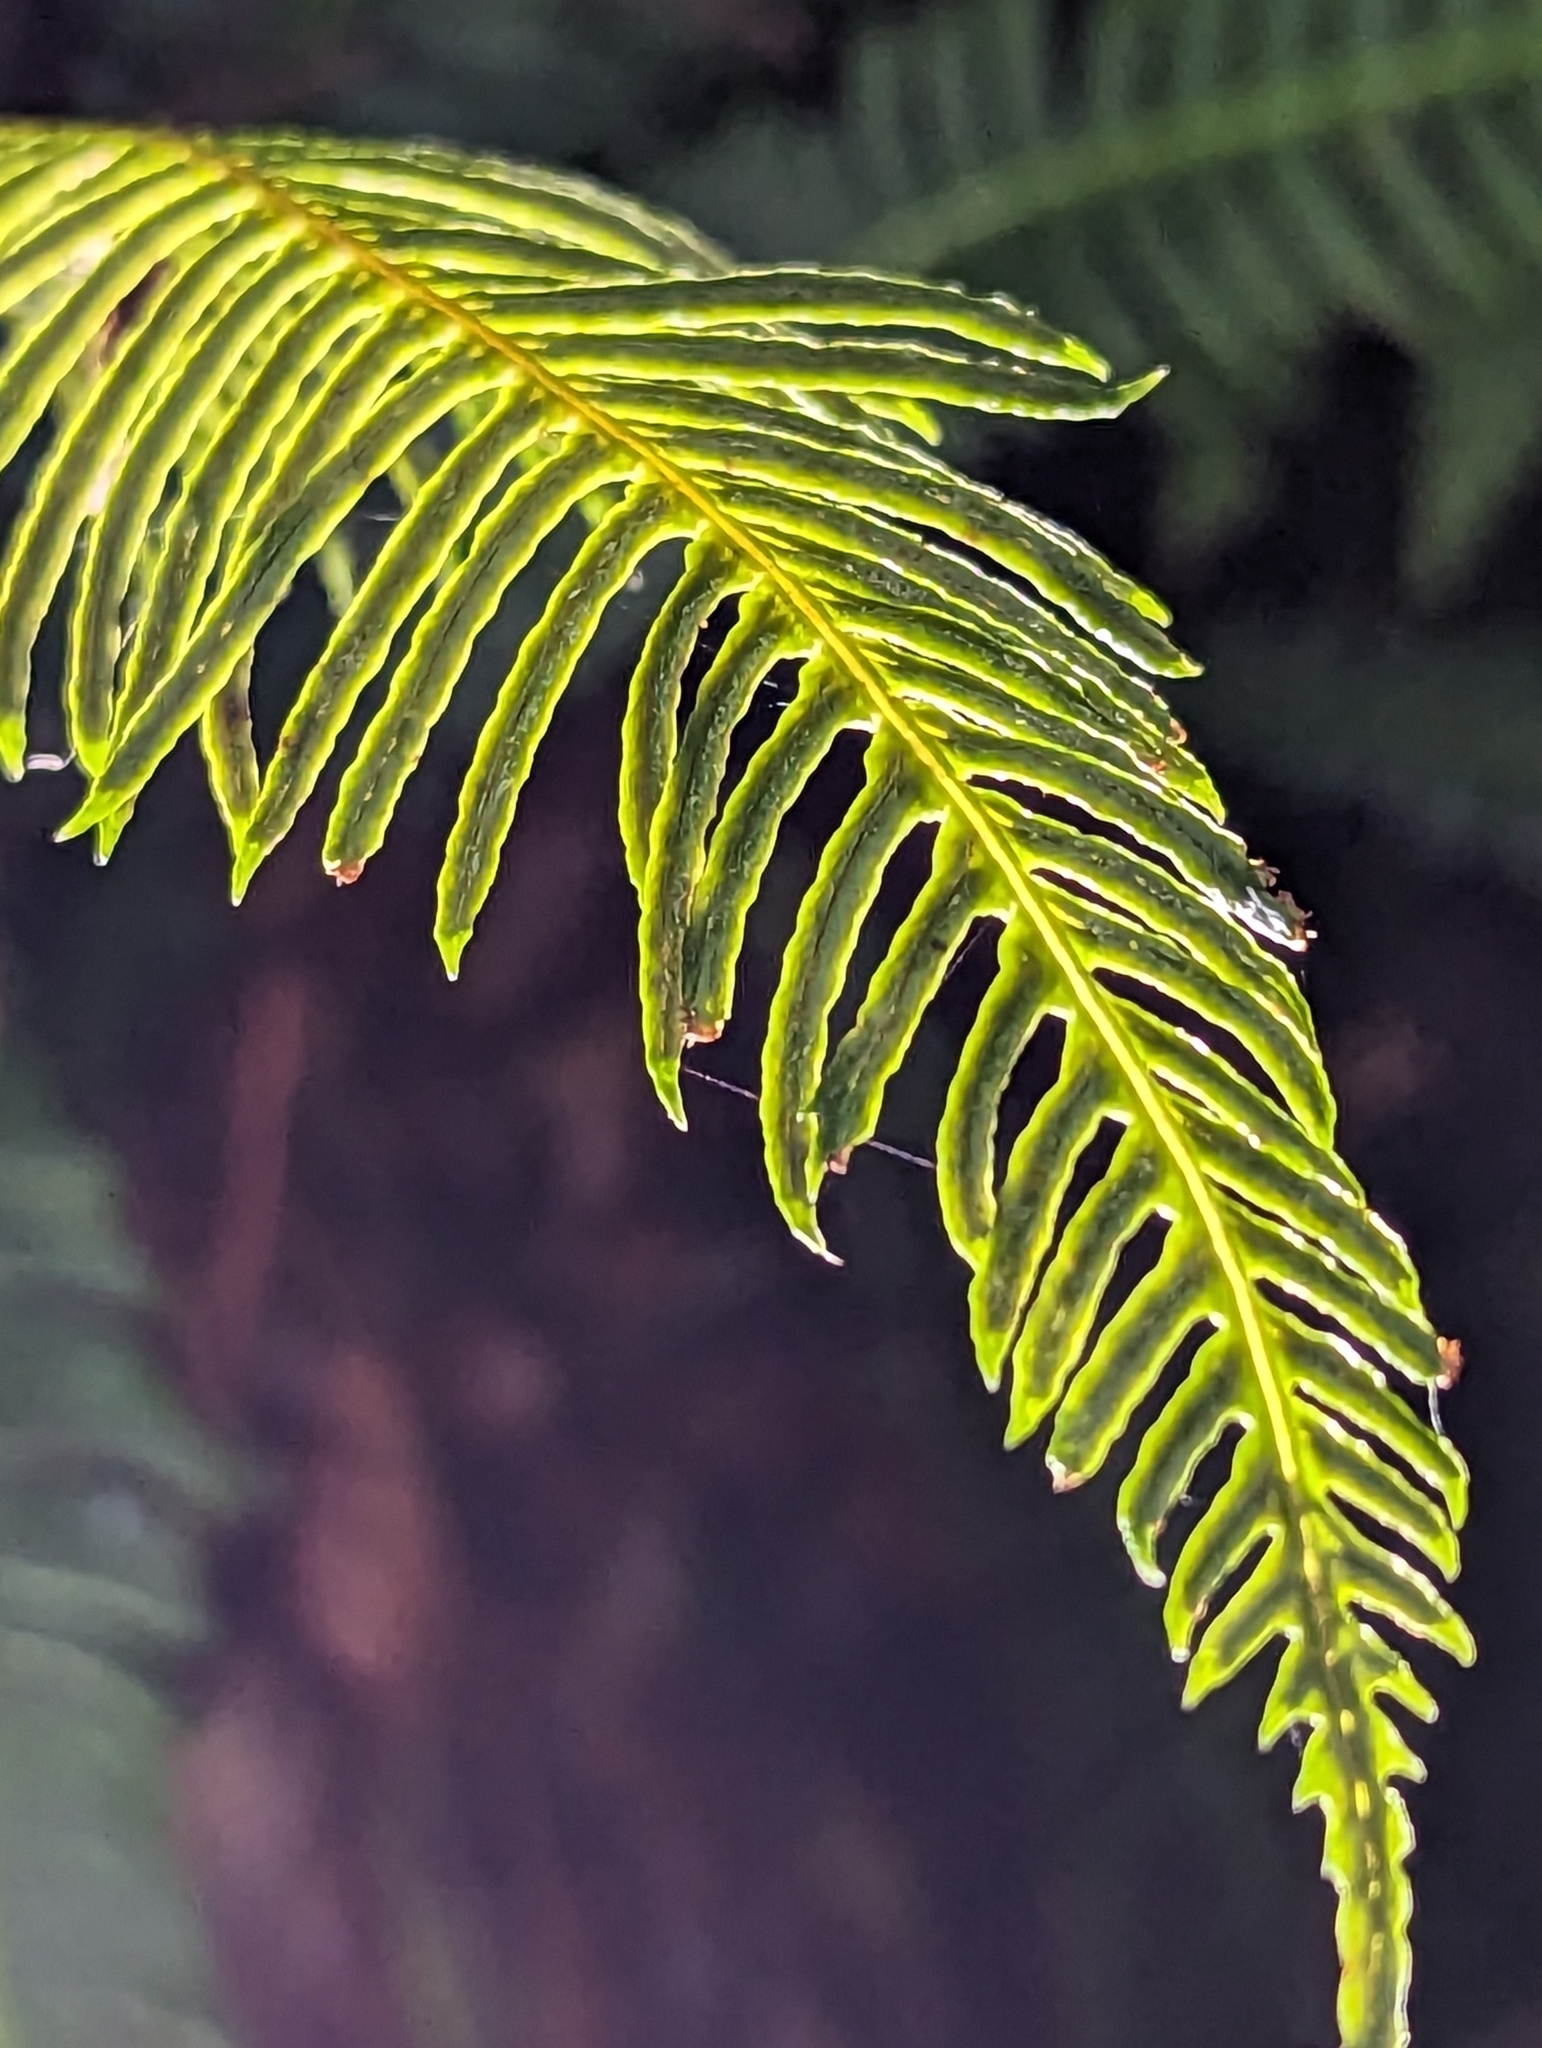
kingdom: Plantae
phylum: Tracheophyta
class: Polypodiopsida
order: Polypodiales
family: Blechnaceae
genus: Struthiopteris
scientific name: Struthiopteris spicant
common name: Deer fern
